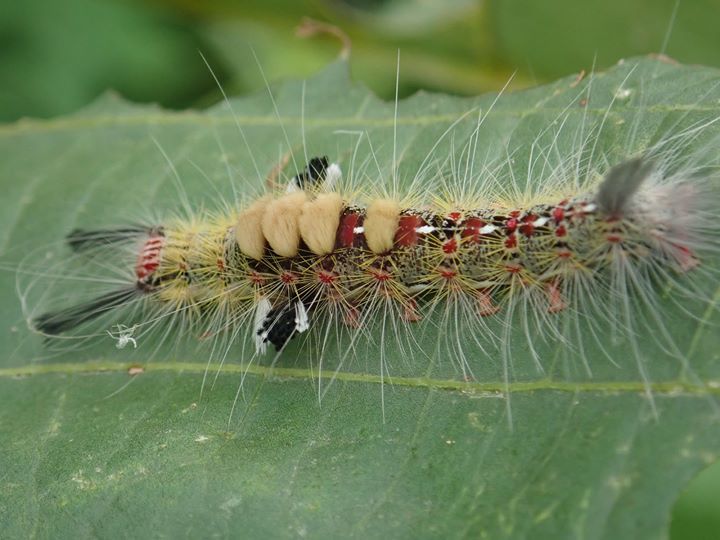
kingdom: Animalia
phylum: Arthropoda
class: Insecta
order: Lepidoptera
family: Erebidae
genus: Olene
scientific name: Olene mendosa
